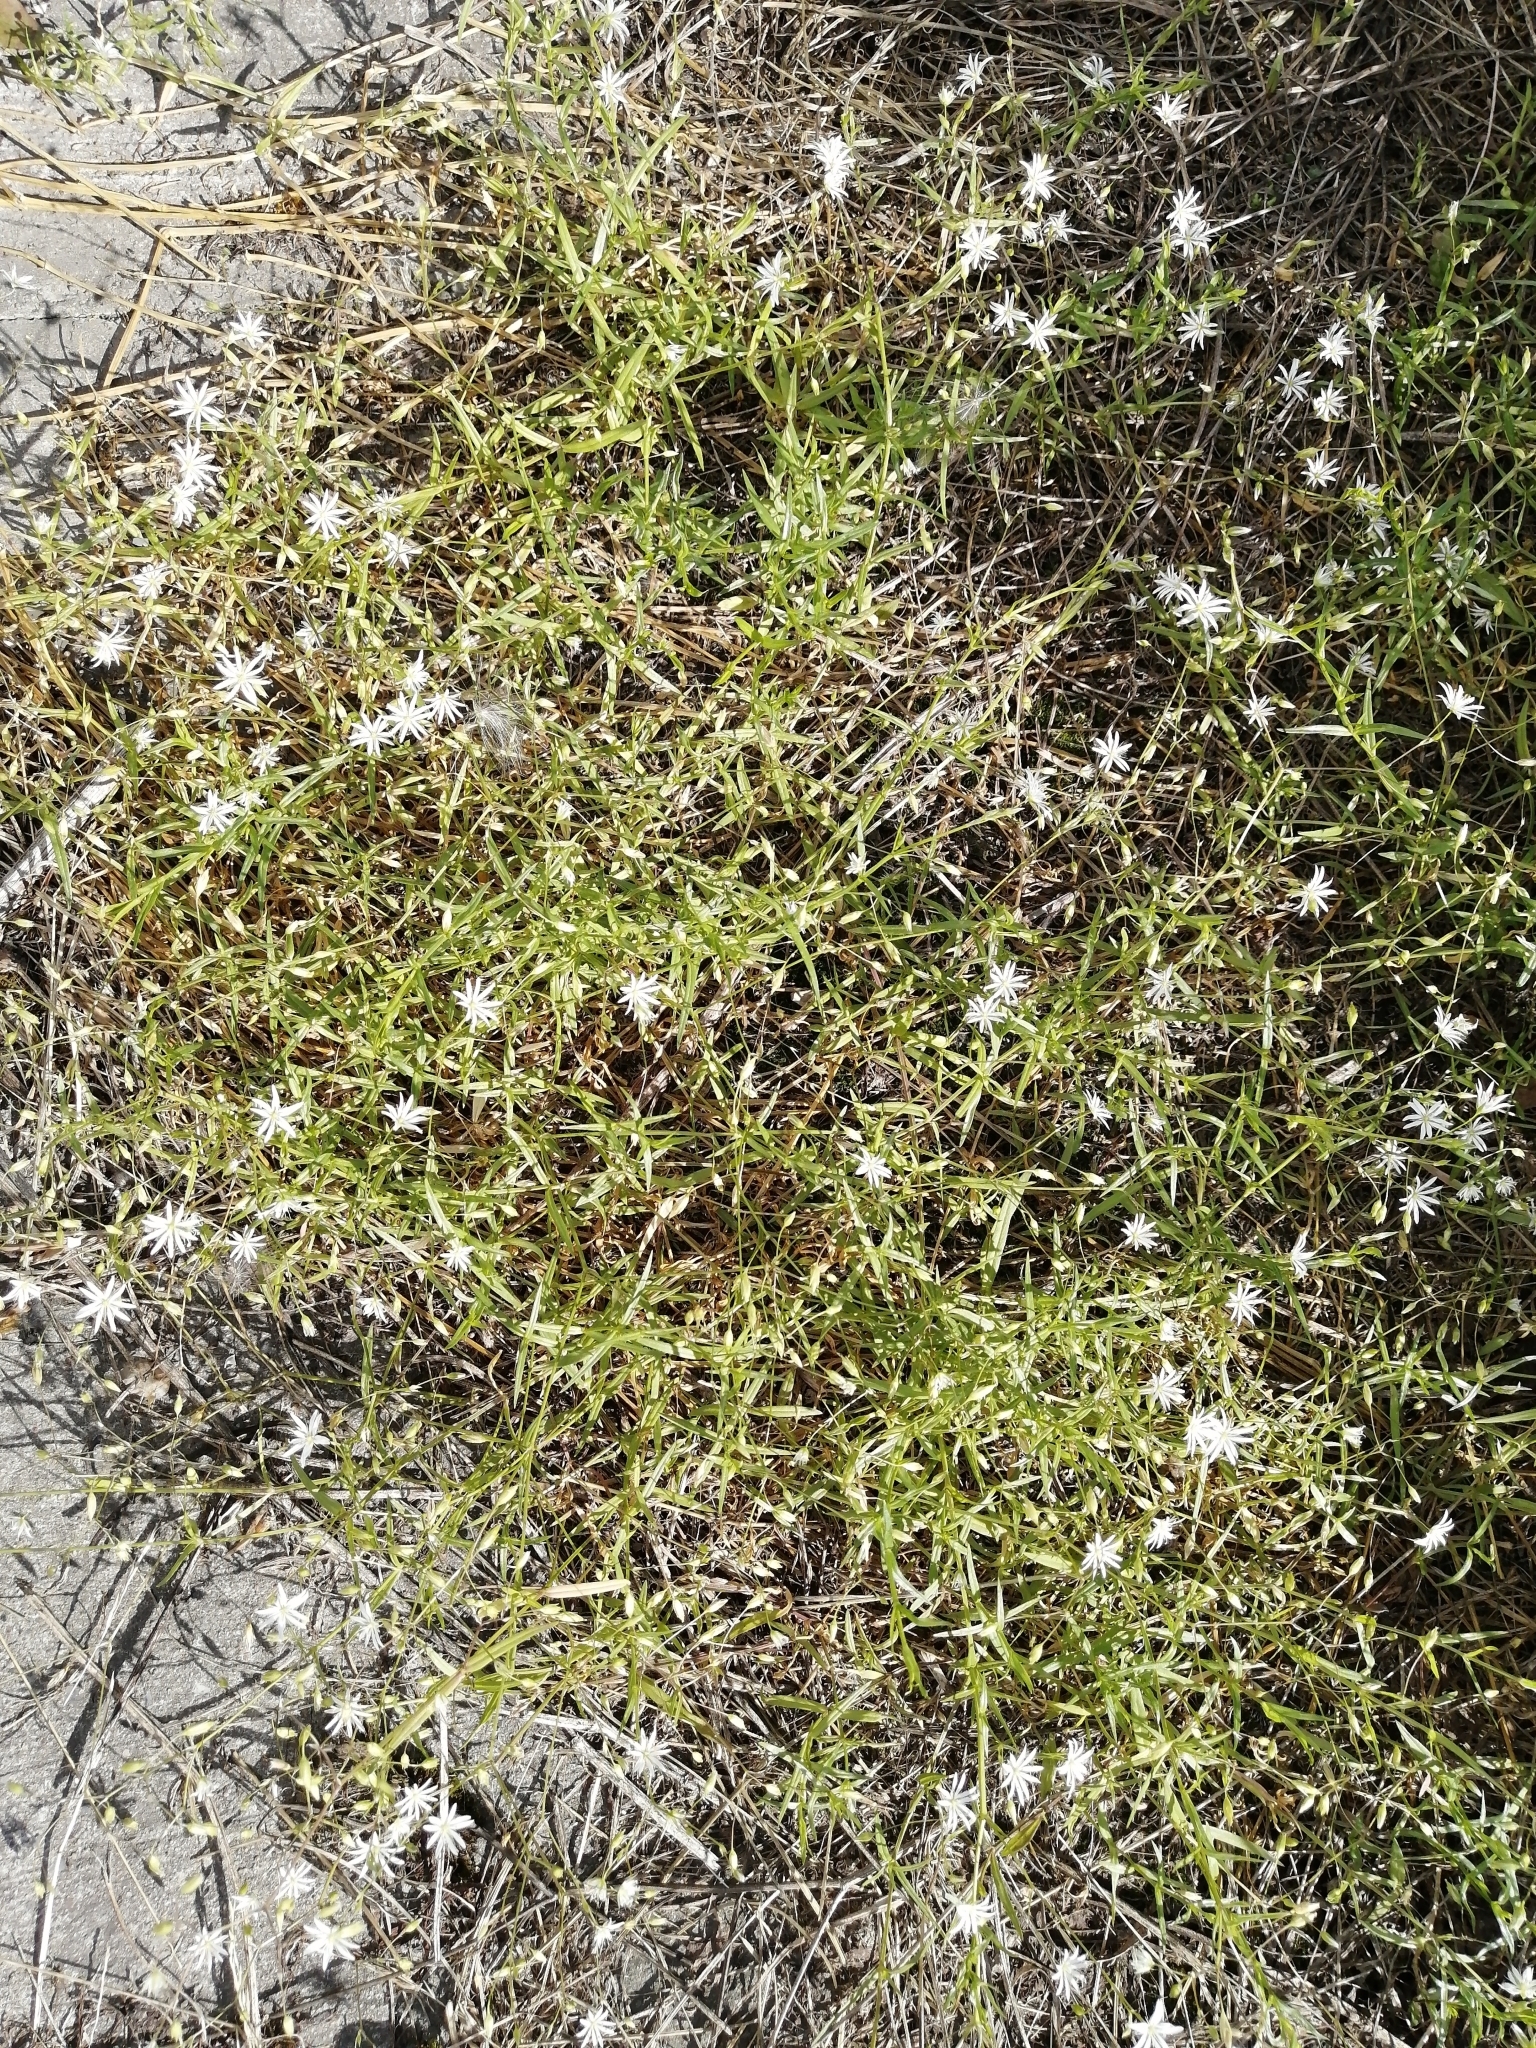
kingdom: Plantae
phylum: Tracheophyta
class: Magnoliopsida
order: Caryophyllales
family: Caryophyllaceae
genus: Stellaria
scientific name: Stellaria graminea
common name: Grass-like starwort
